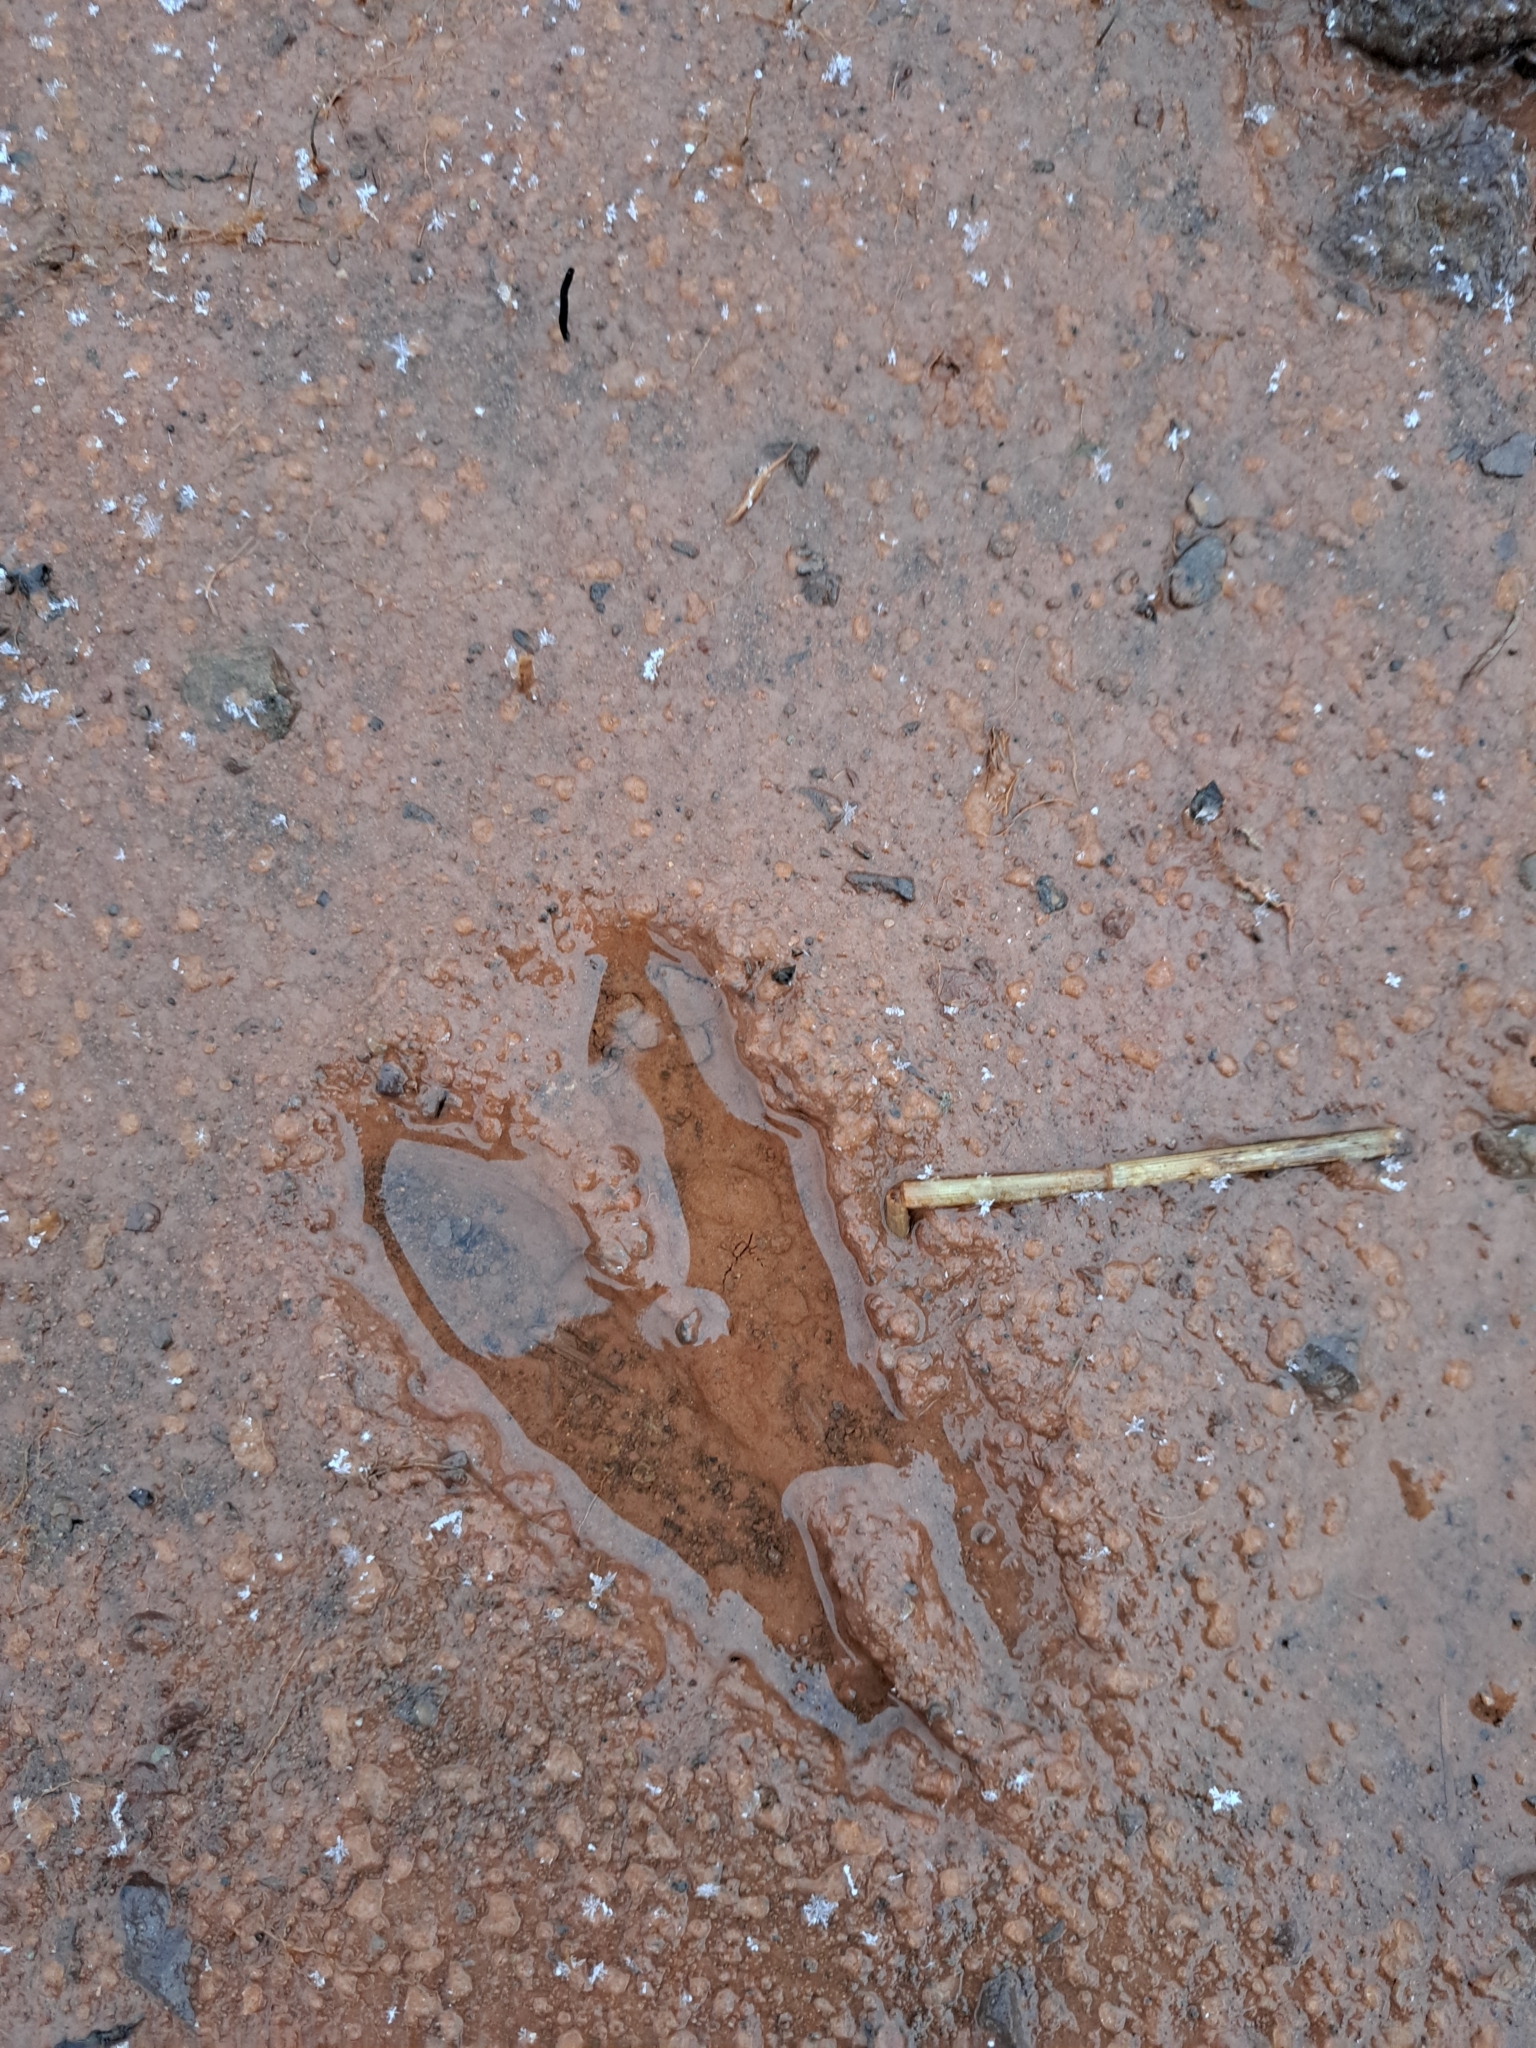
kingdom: Animalia
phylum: Chordata
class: Mammalia
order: Artiodactyla
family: Cervidae
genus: Odocoileus
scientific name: Odocoileus virginianus
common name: White-tailed deer
